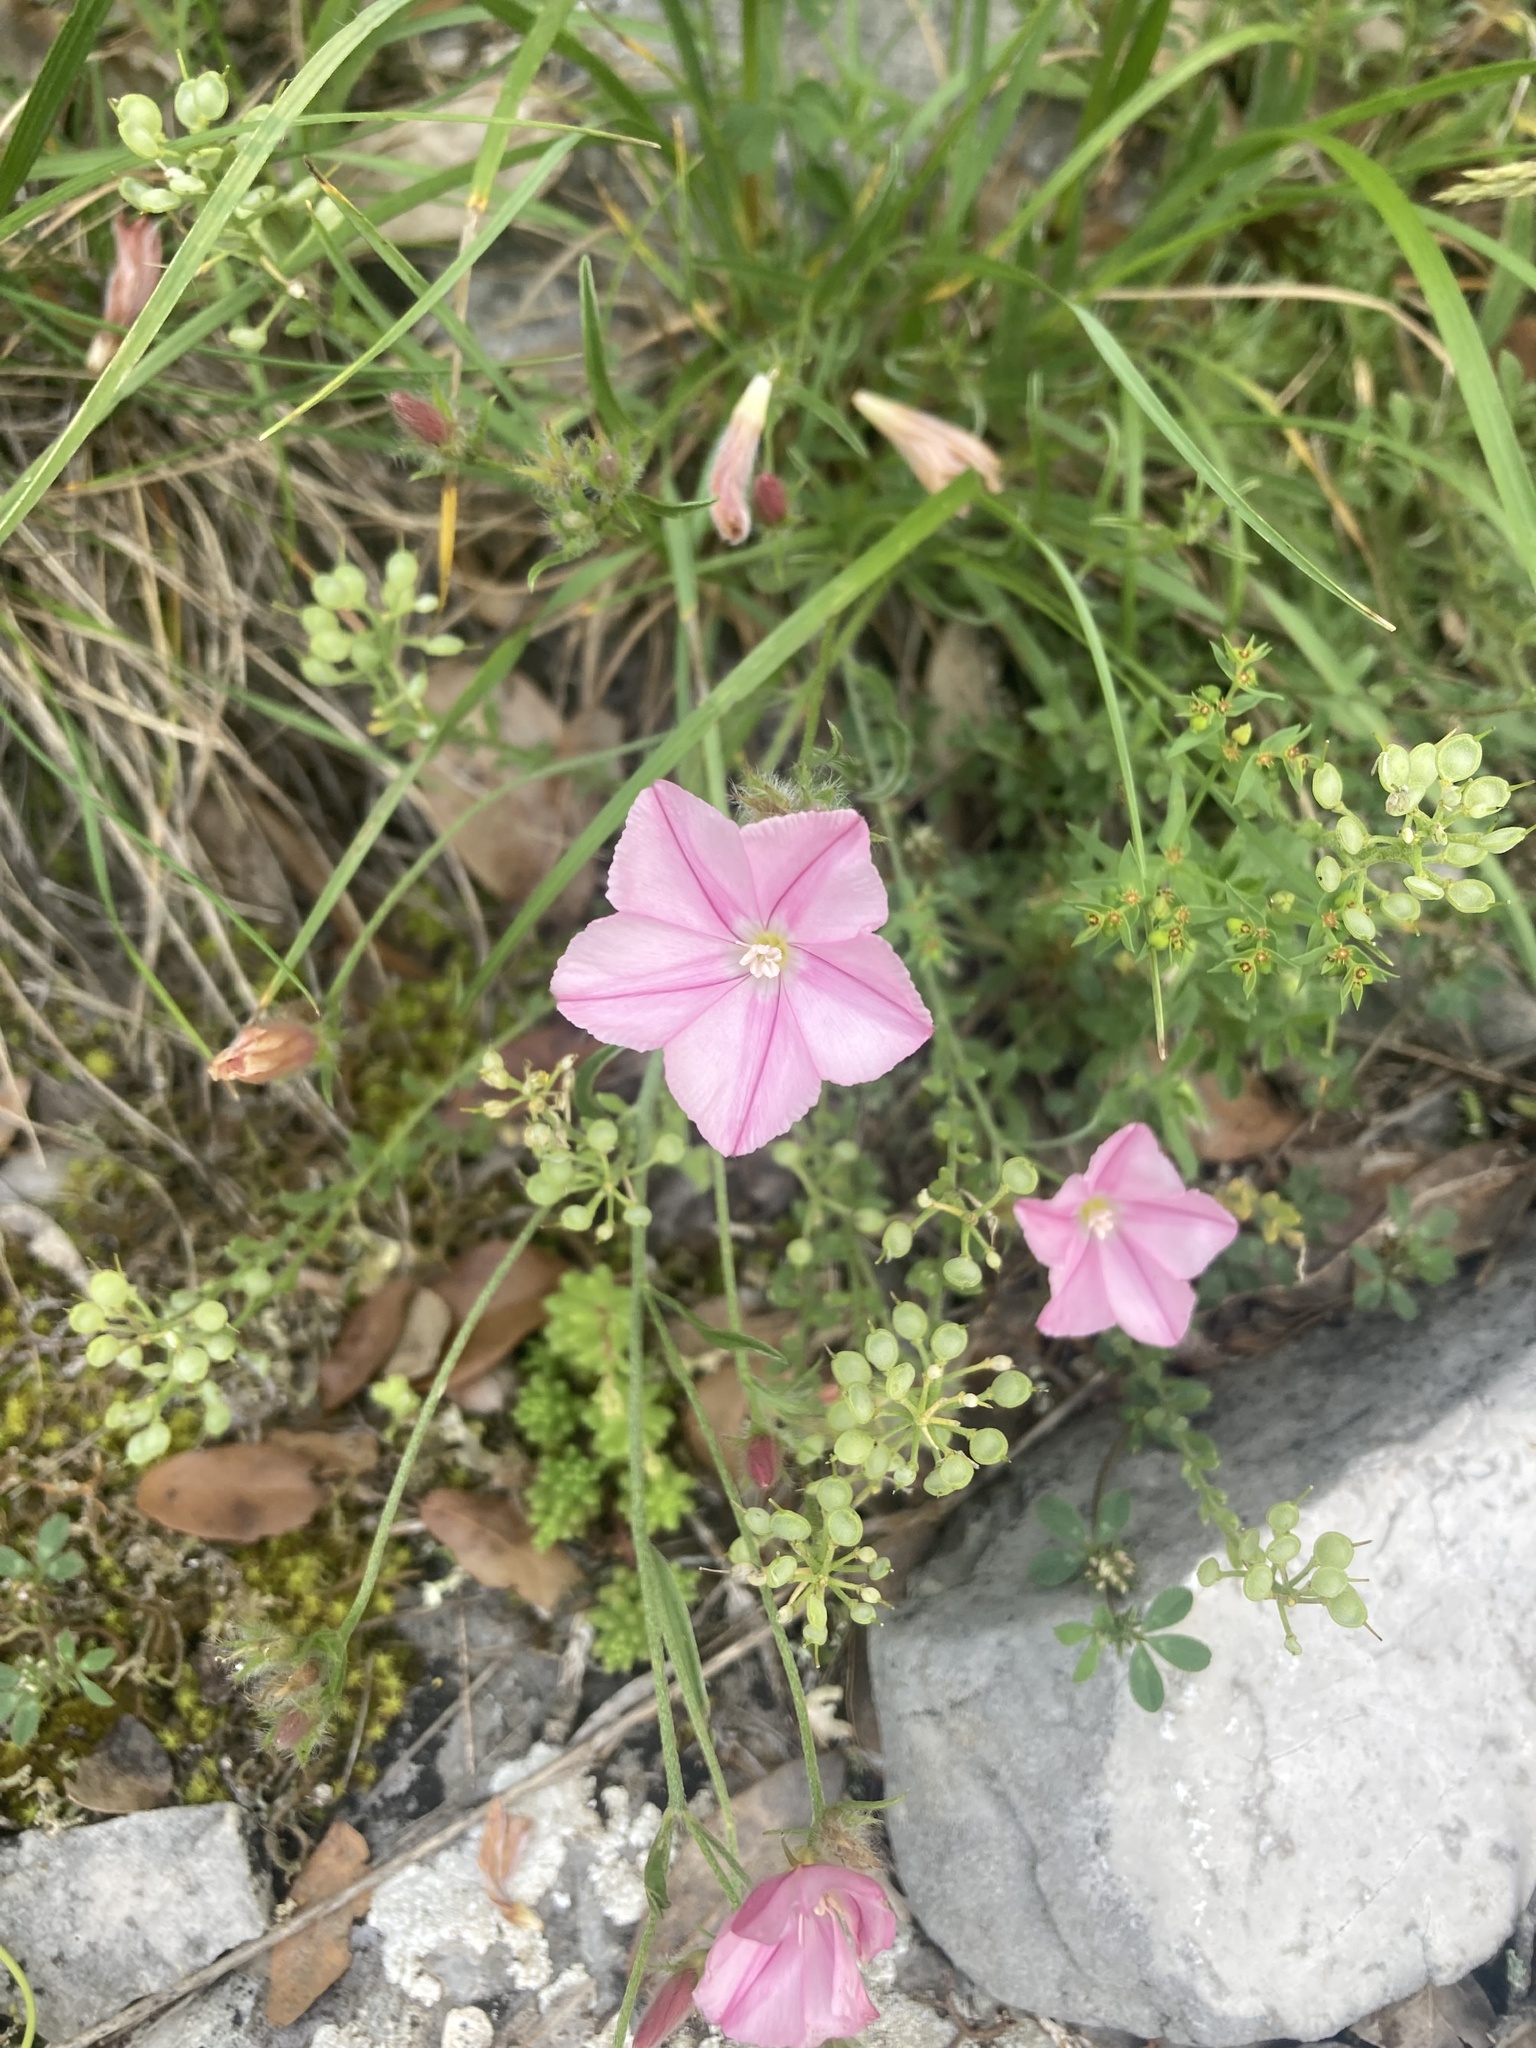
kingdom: Plantae
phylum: Tracheophyta
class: Magnoliopsida
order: Solanales
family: Convolvulaceae
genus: Convolvulus
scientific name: Convolvulus cantabrica
